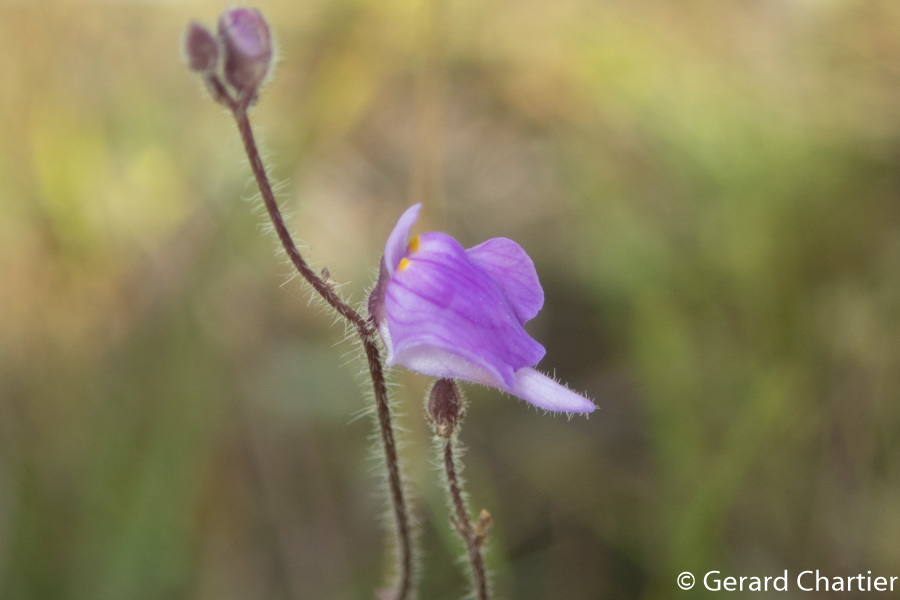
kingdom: Plantae
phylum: Tracheophyta
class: Magnoliopsida
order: Lamiales
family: Lentibulariaceae
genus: Utricularia
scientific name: Utricularia hirta
